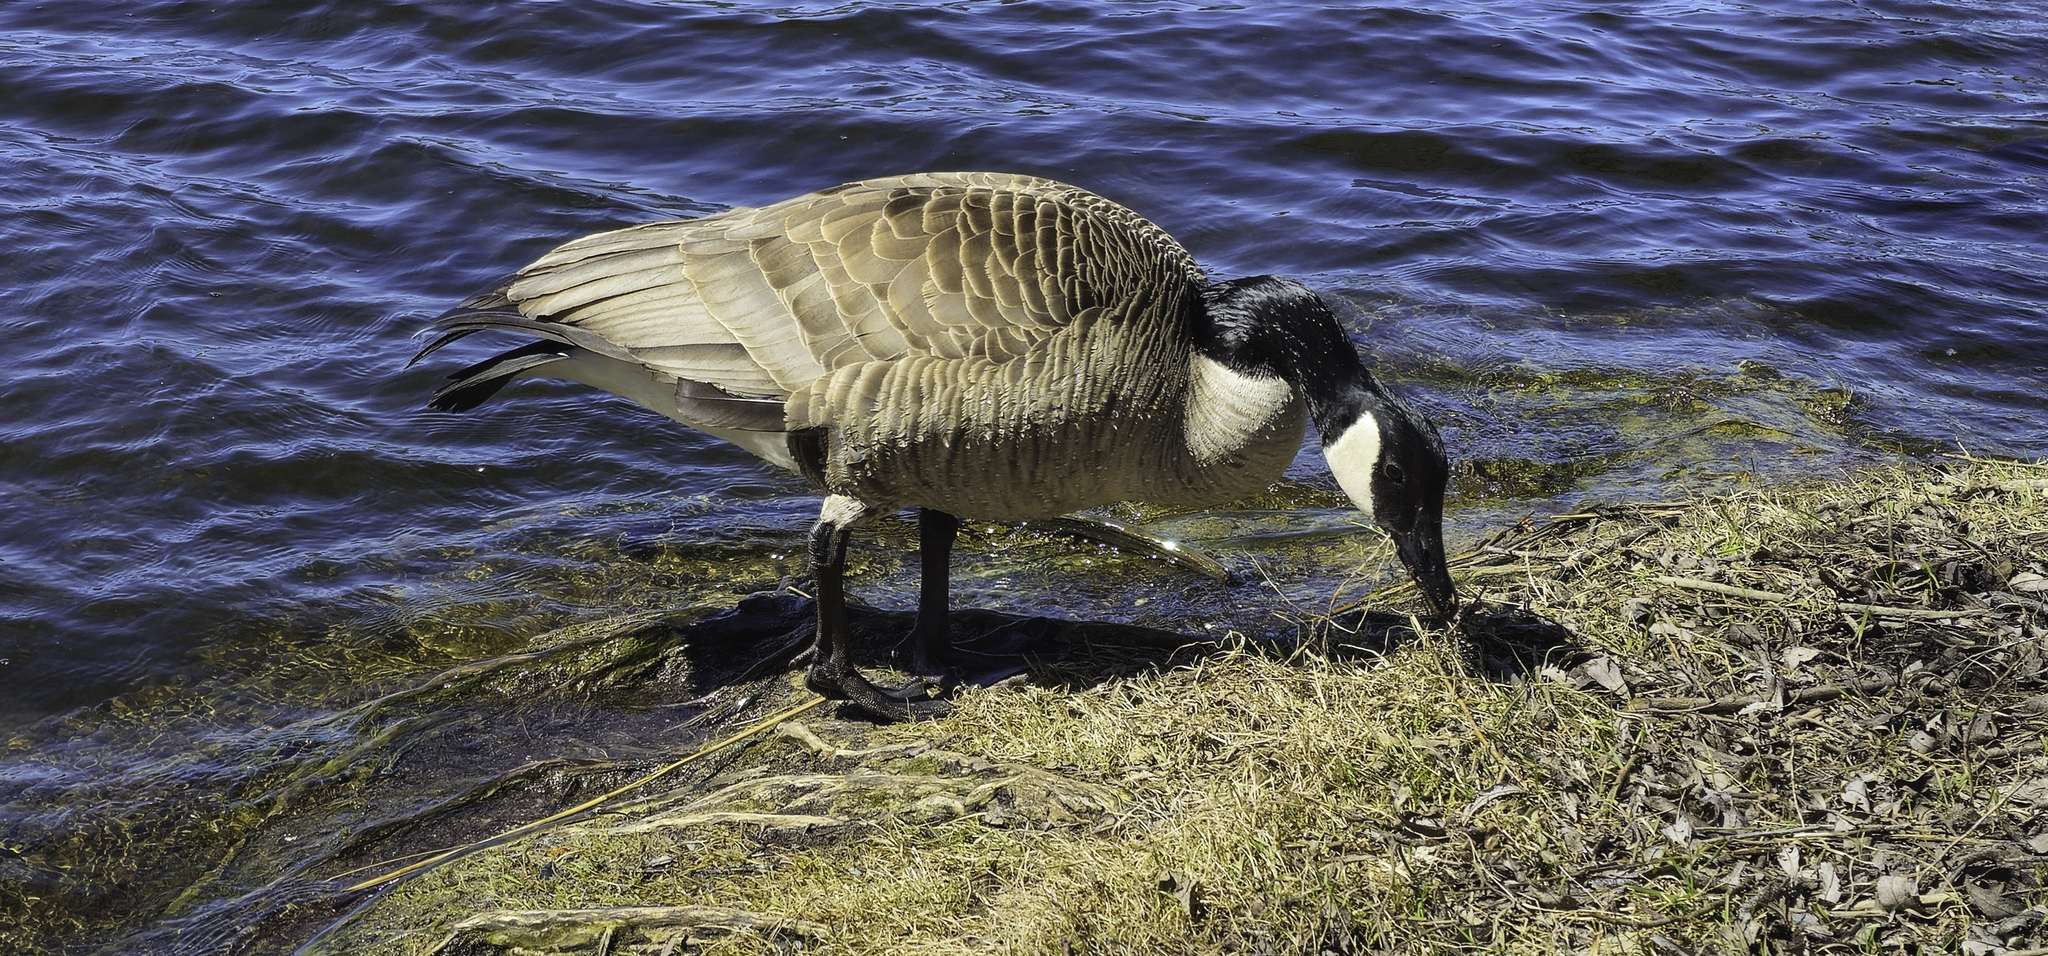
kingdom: Animalia
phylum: Chordata
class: Aves
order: Anseriformes
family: Anatidae
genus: Branta
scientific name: Branta canadensis
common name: Canada goose
